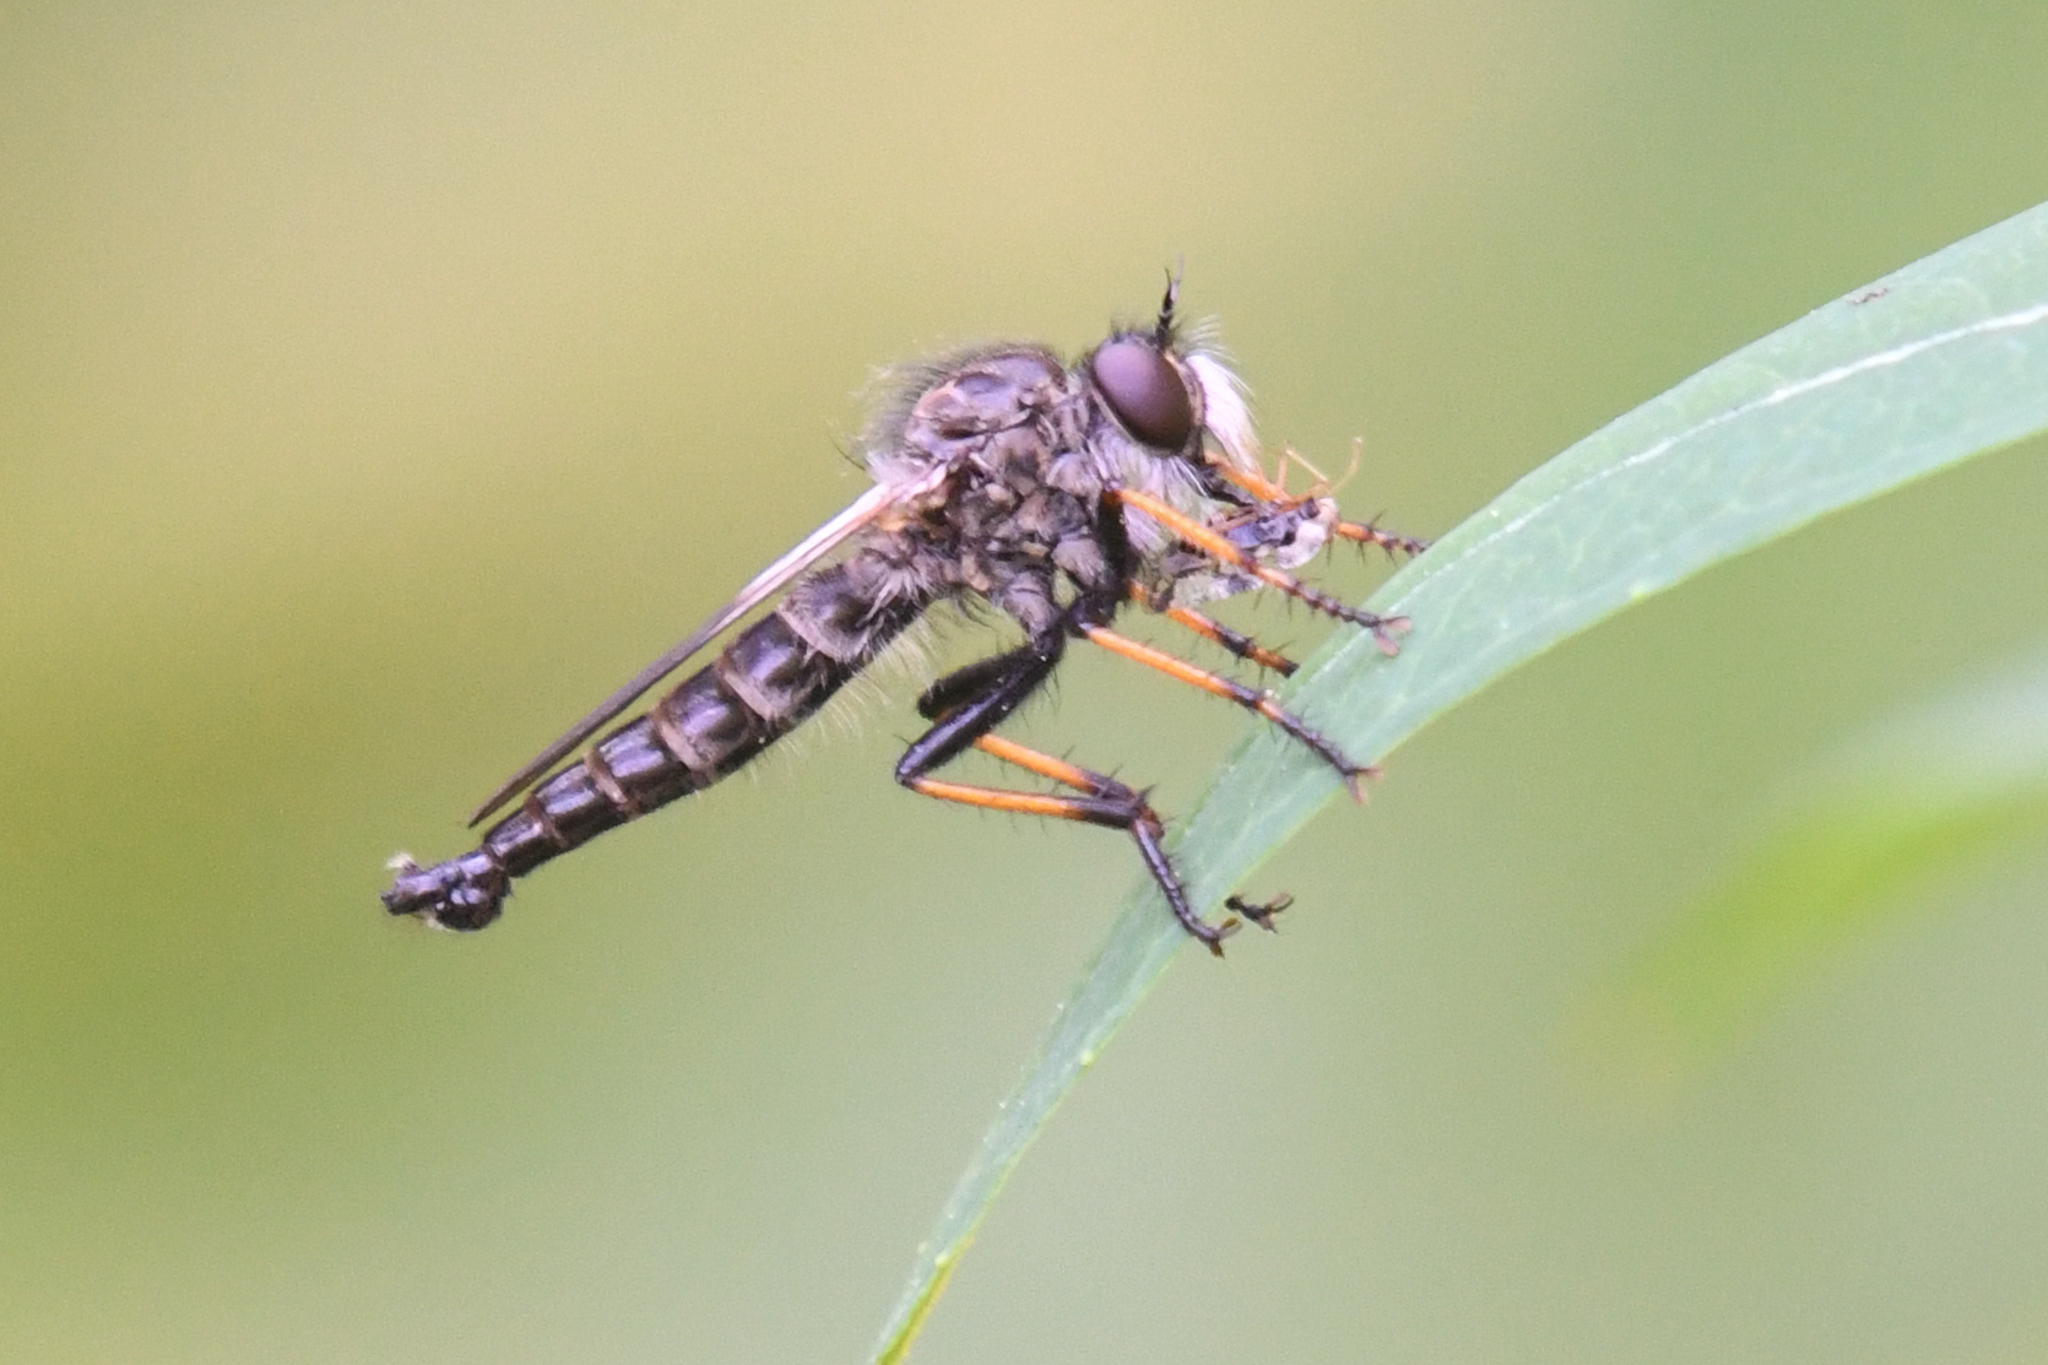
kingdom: Animalia
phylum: Arthropoda
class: Insecta
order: Diptera
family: Asilidae
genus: Neoitamus
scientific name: Neoitamus brevicomus
